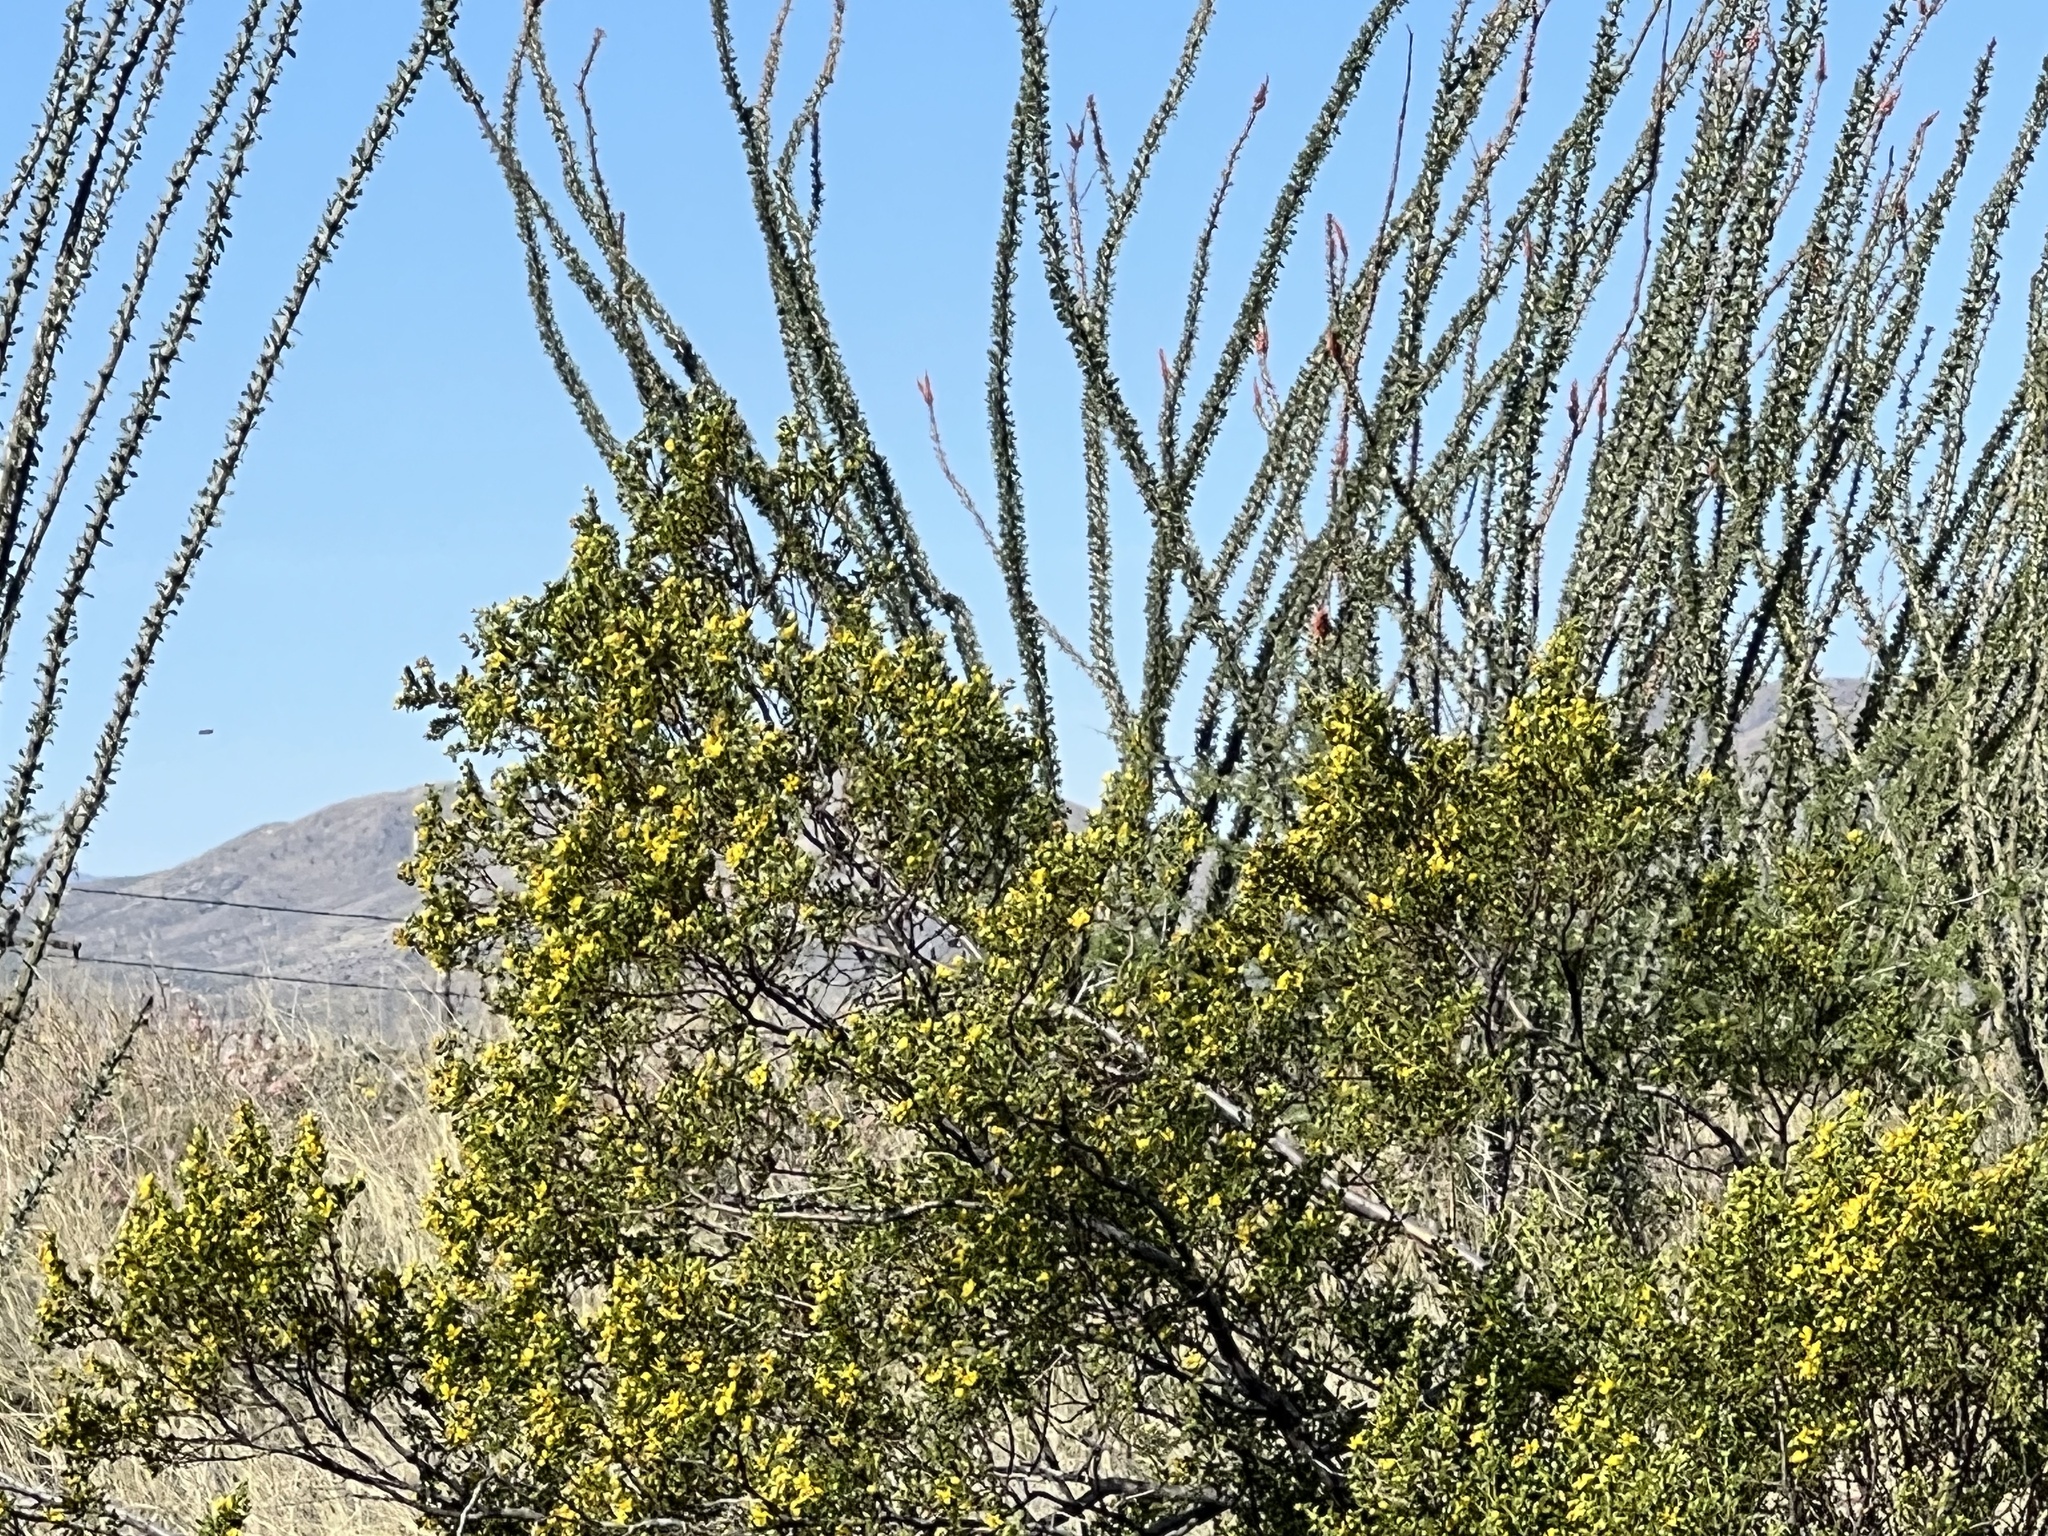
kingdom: Plantae
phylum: Tracheophyta
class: Magnoliopsida
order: Zygophyllales
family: Zygophyllaceae
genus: Larrea
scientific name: Larrea tridentata
